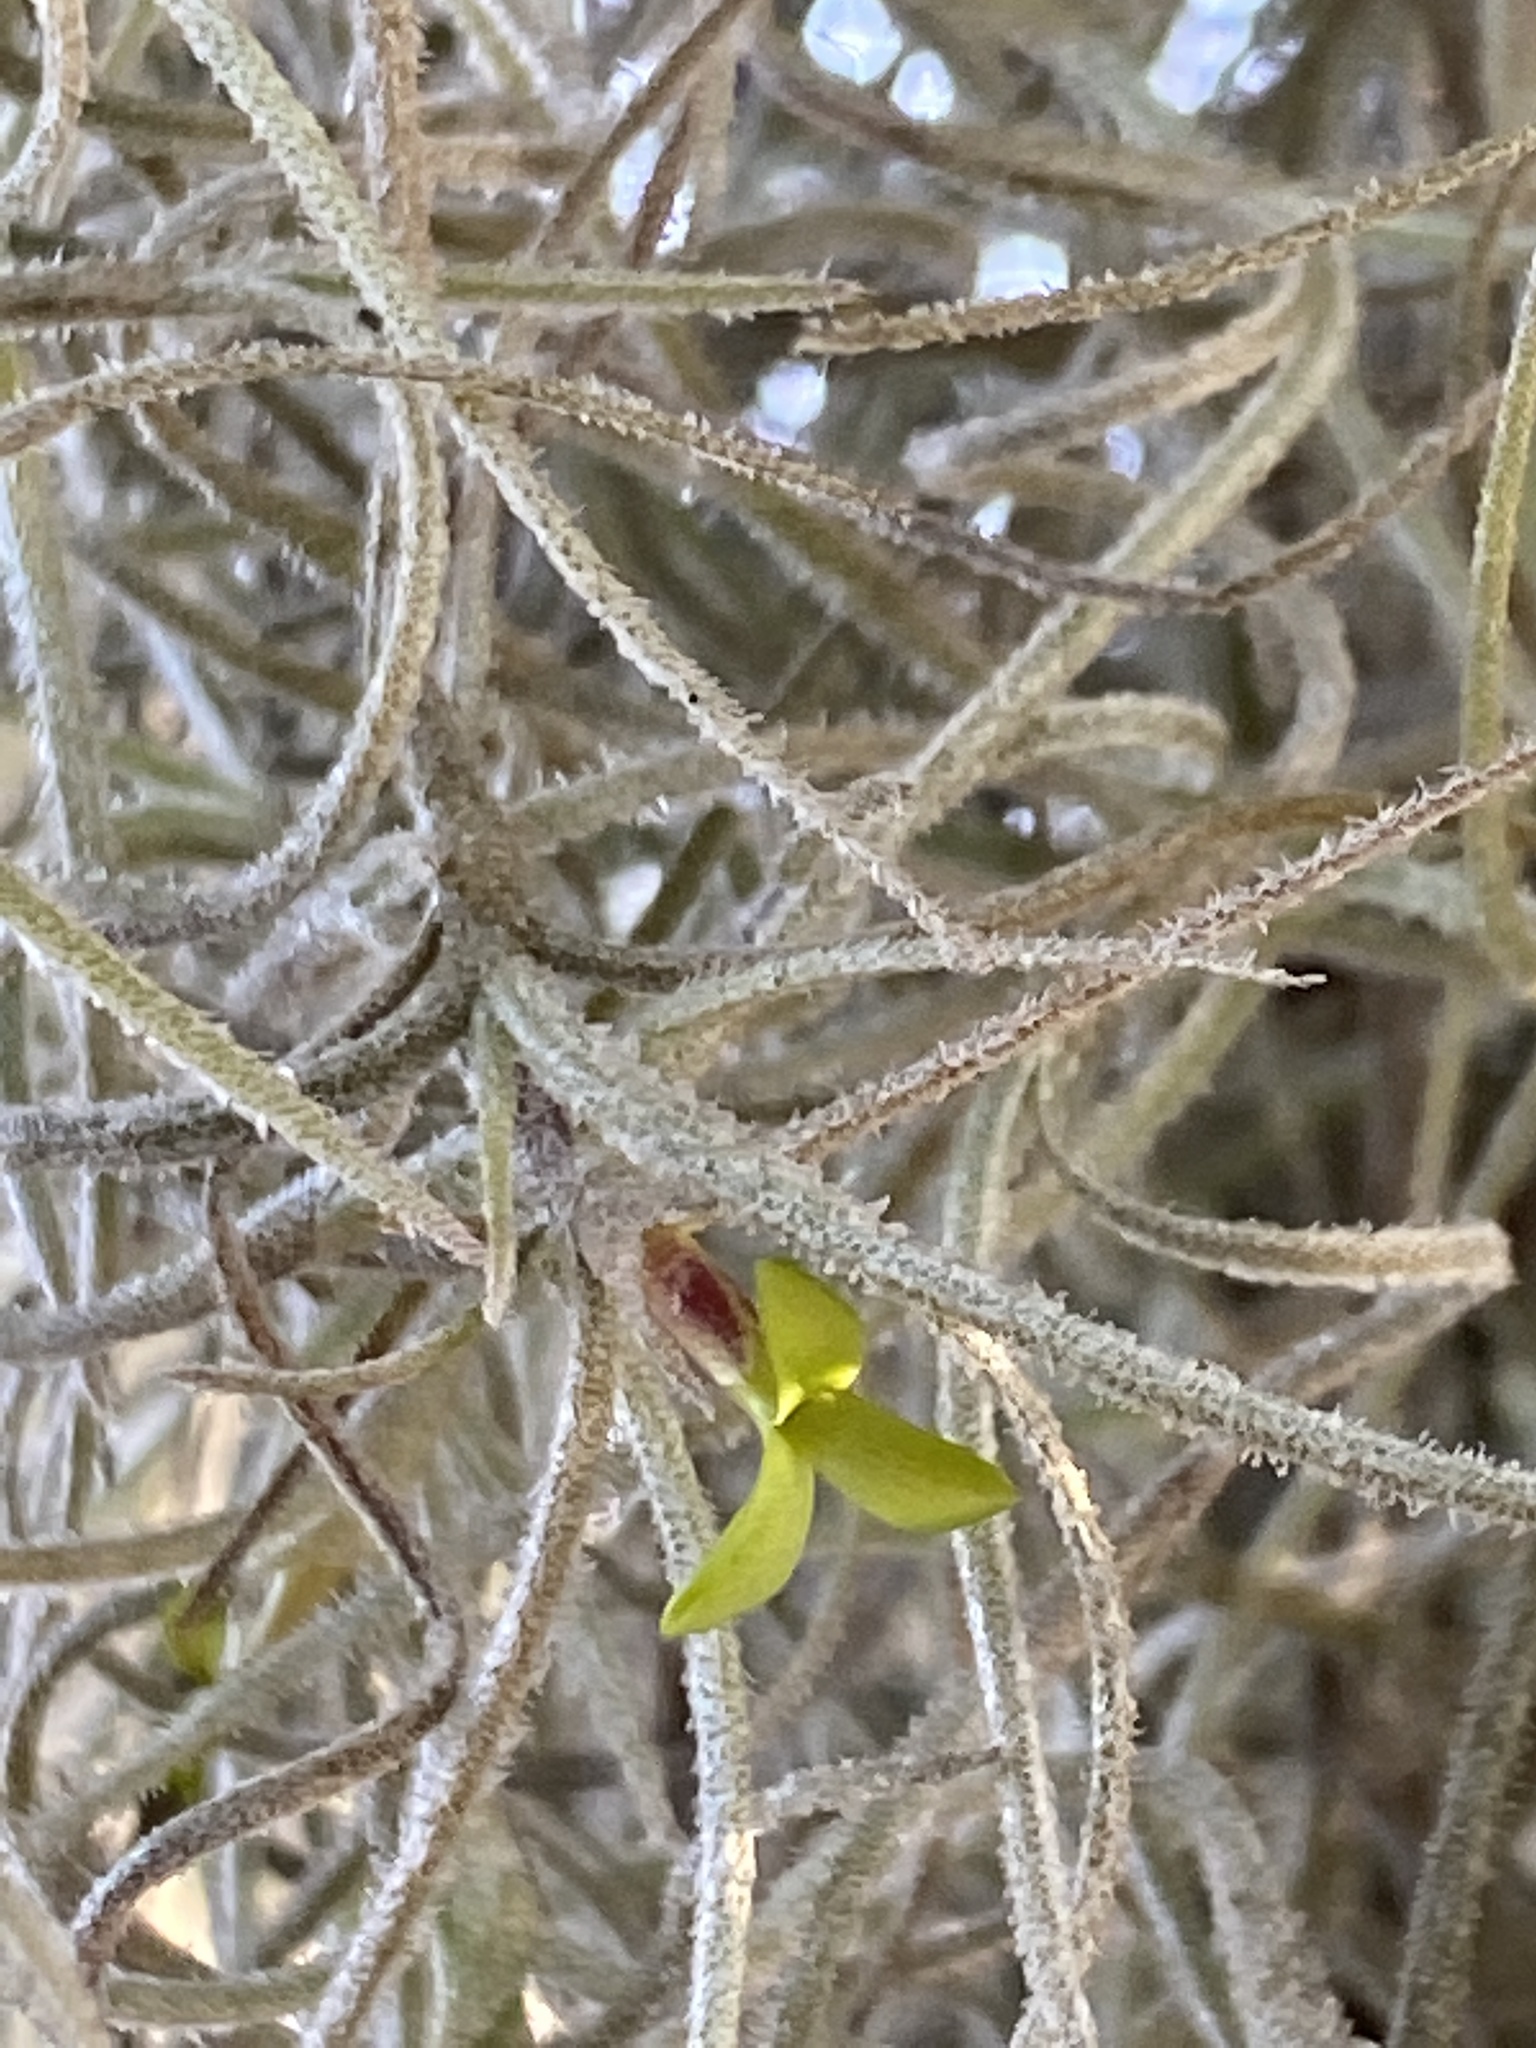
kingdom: Plantae
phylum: Tracheophyta
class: Liliopsida
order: Poales
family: Bromeliaceae
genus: Tillandsia
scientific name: Tillandsia usneoides
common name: Spanish moss
